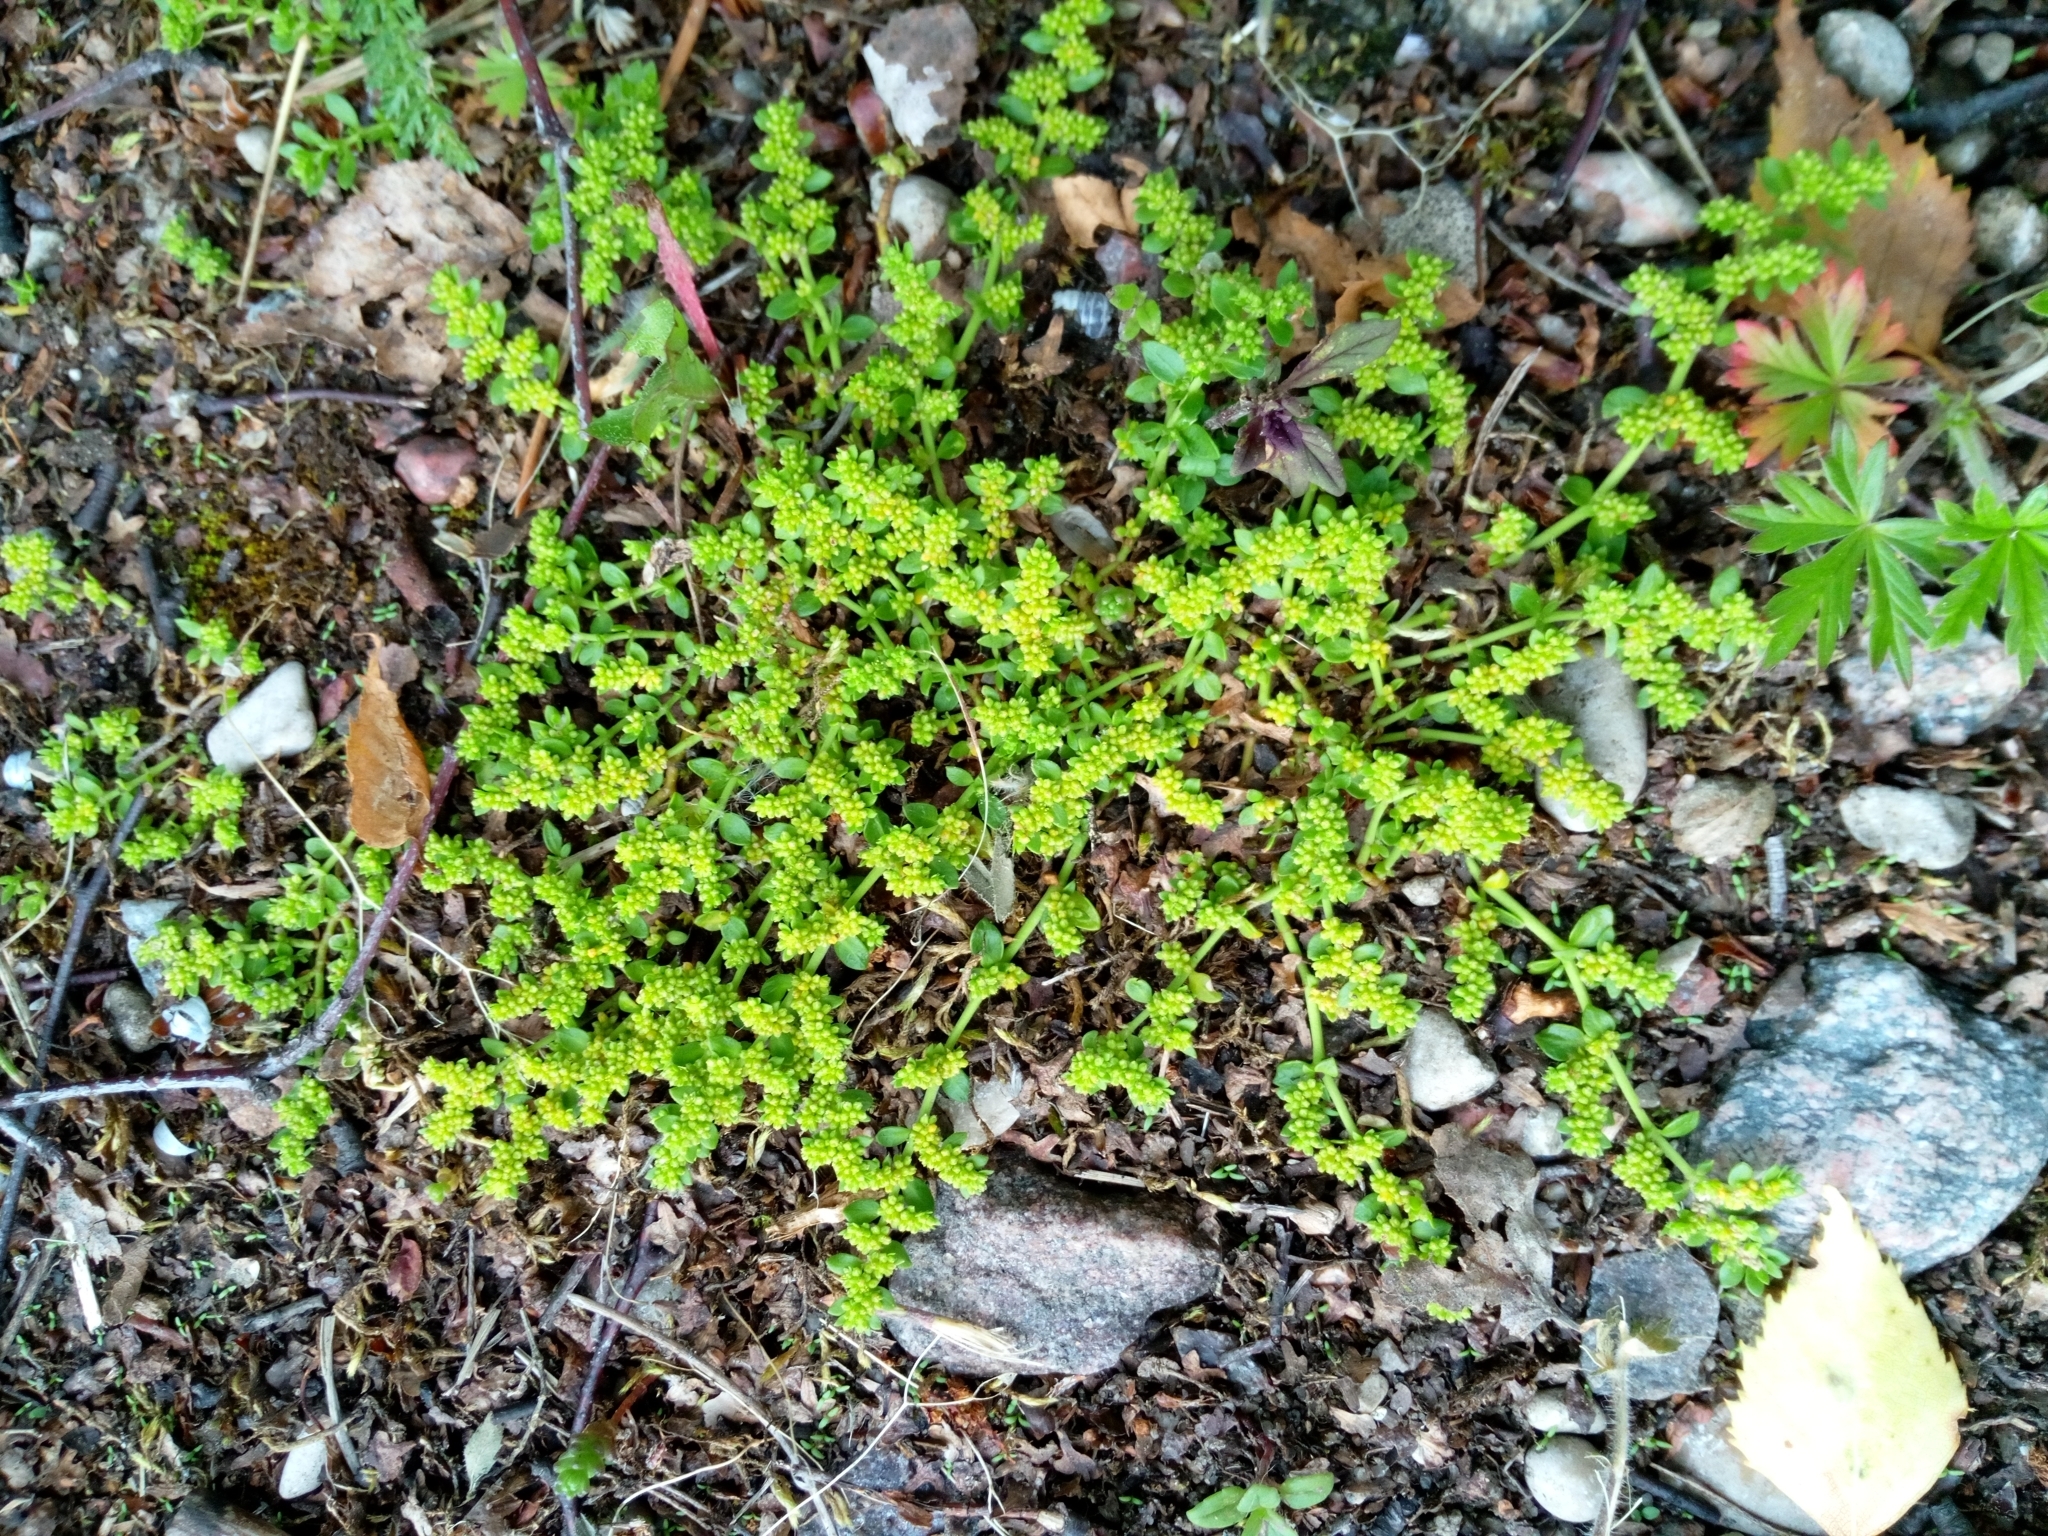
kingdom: Plantae
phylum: Tracheophyta
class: Magnoliopsida
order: Caryophyllales
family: Caryophyllaceae
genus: Herniaria
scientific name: Herniaria glabra
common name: Smooth rupturewort
